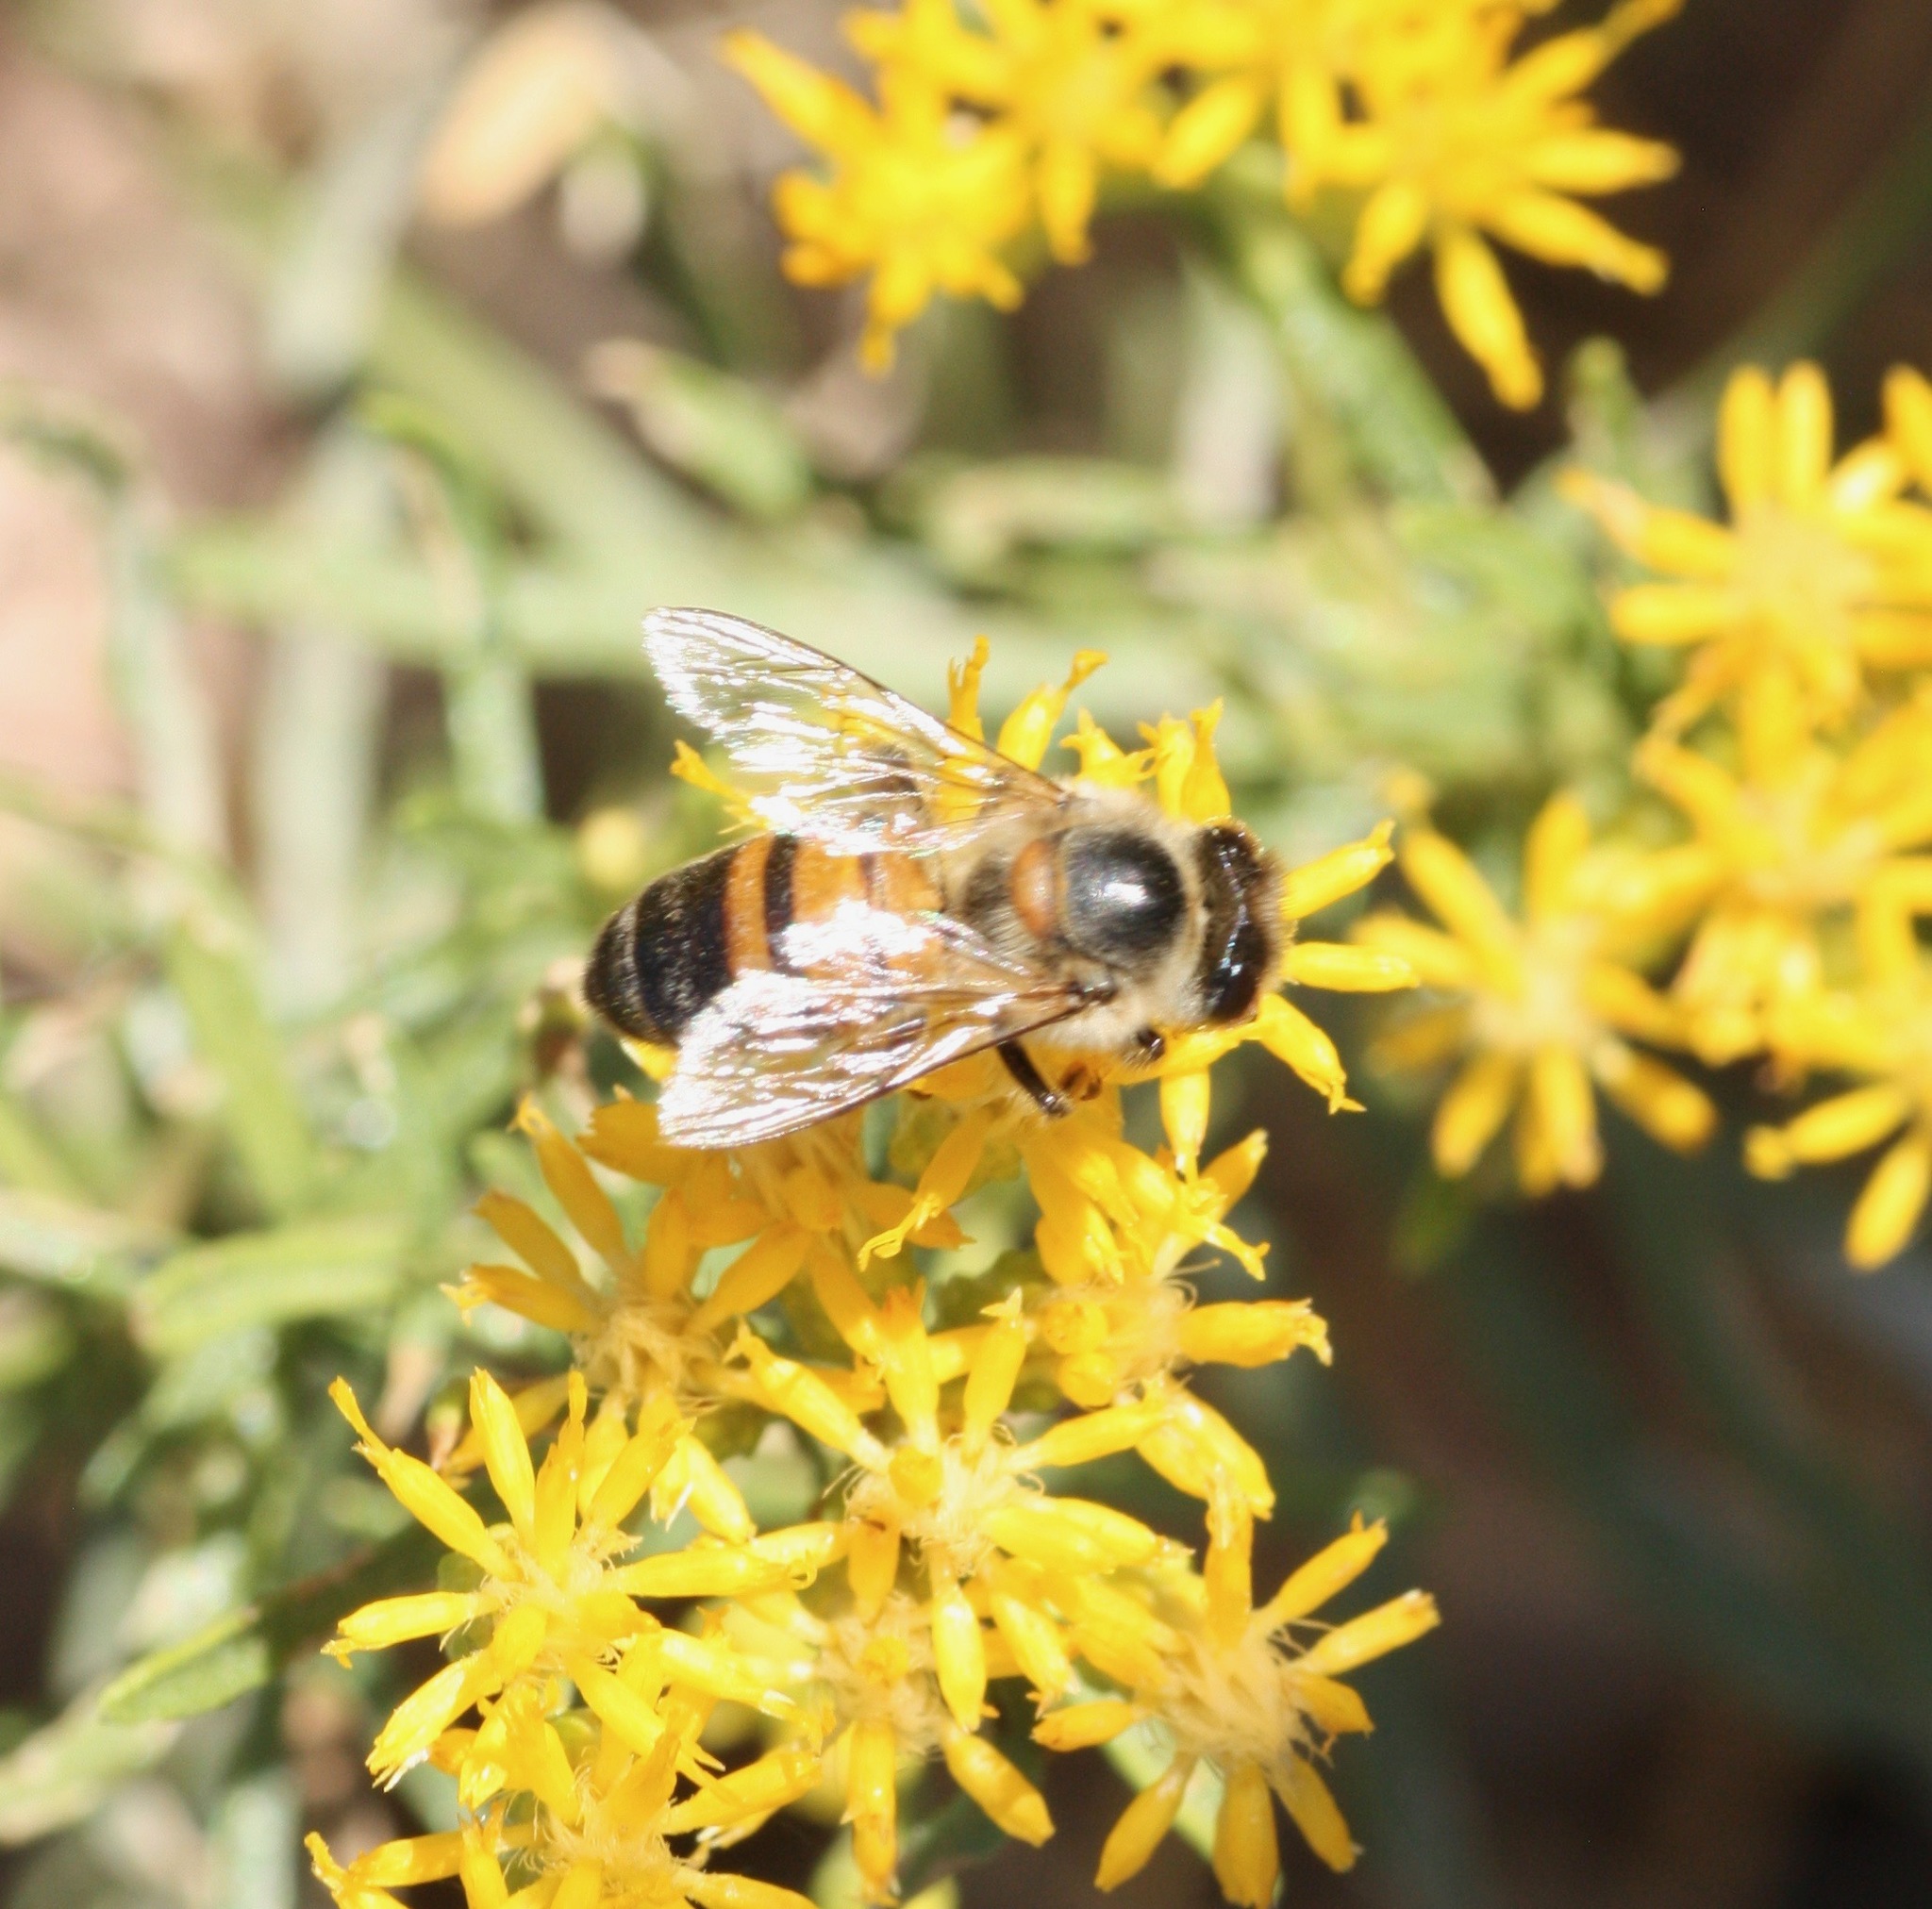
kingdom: Animalia
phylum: Arthropoda
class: Insecta
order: Hymenoptera
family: Apidae
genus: Apis
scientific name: Apis mellifera
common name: Honey bee
